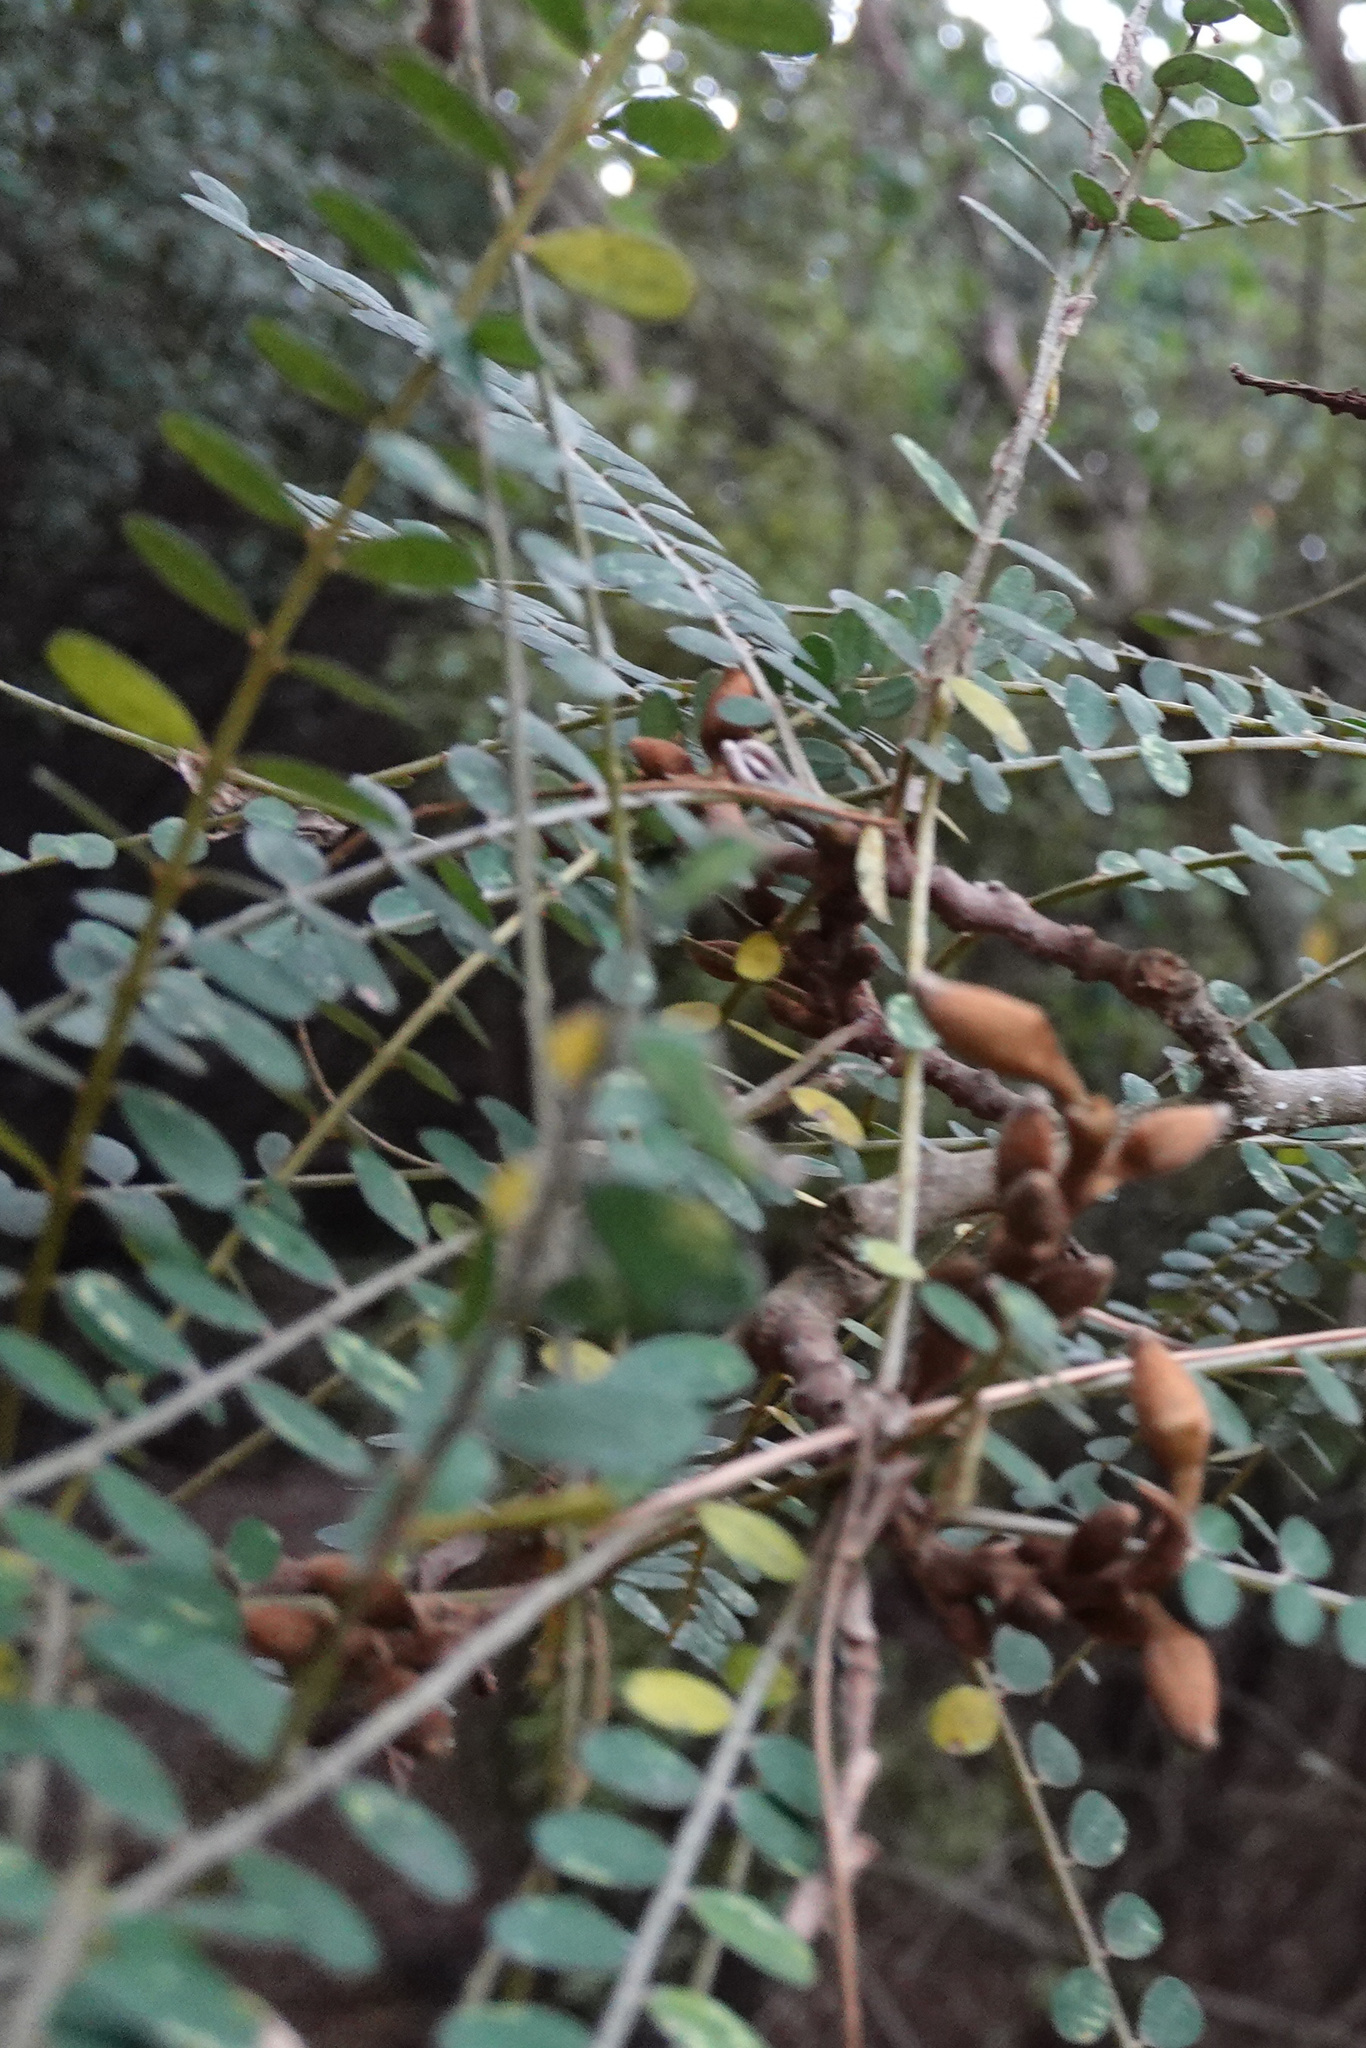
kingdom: Plantae
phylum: Tracheophyta
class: Magnoliopsida
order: Fabales
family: Fabaceae
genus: Sophora
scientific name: Sophora microphylla
